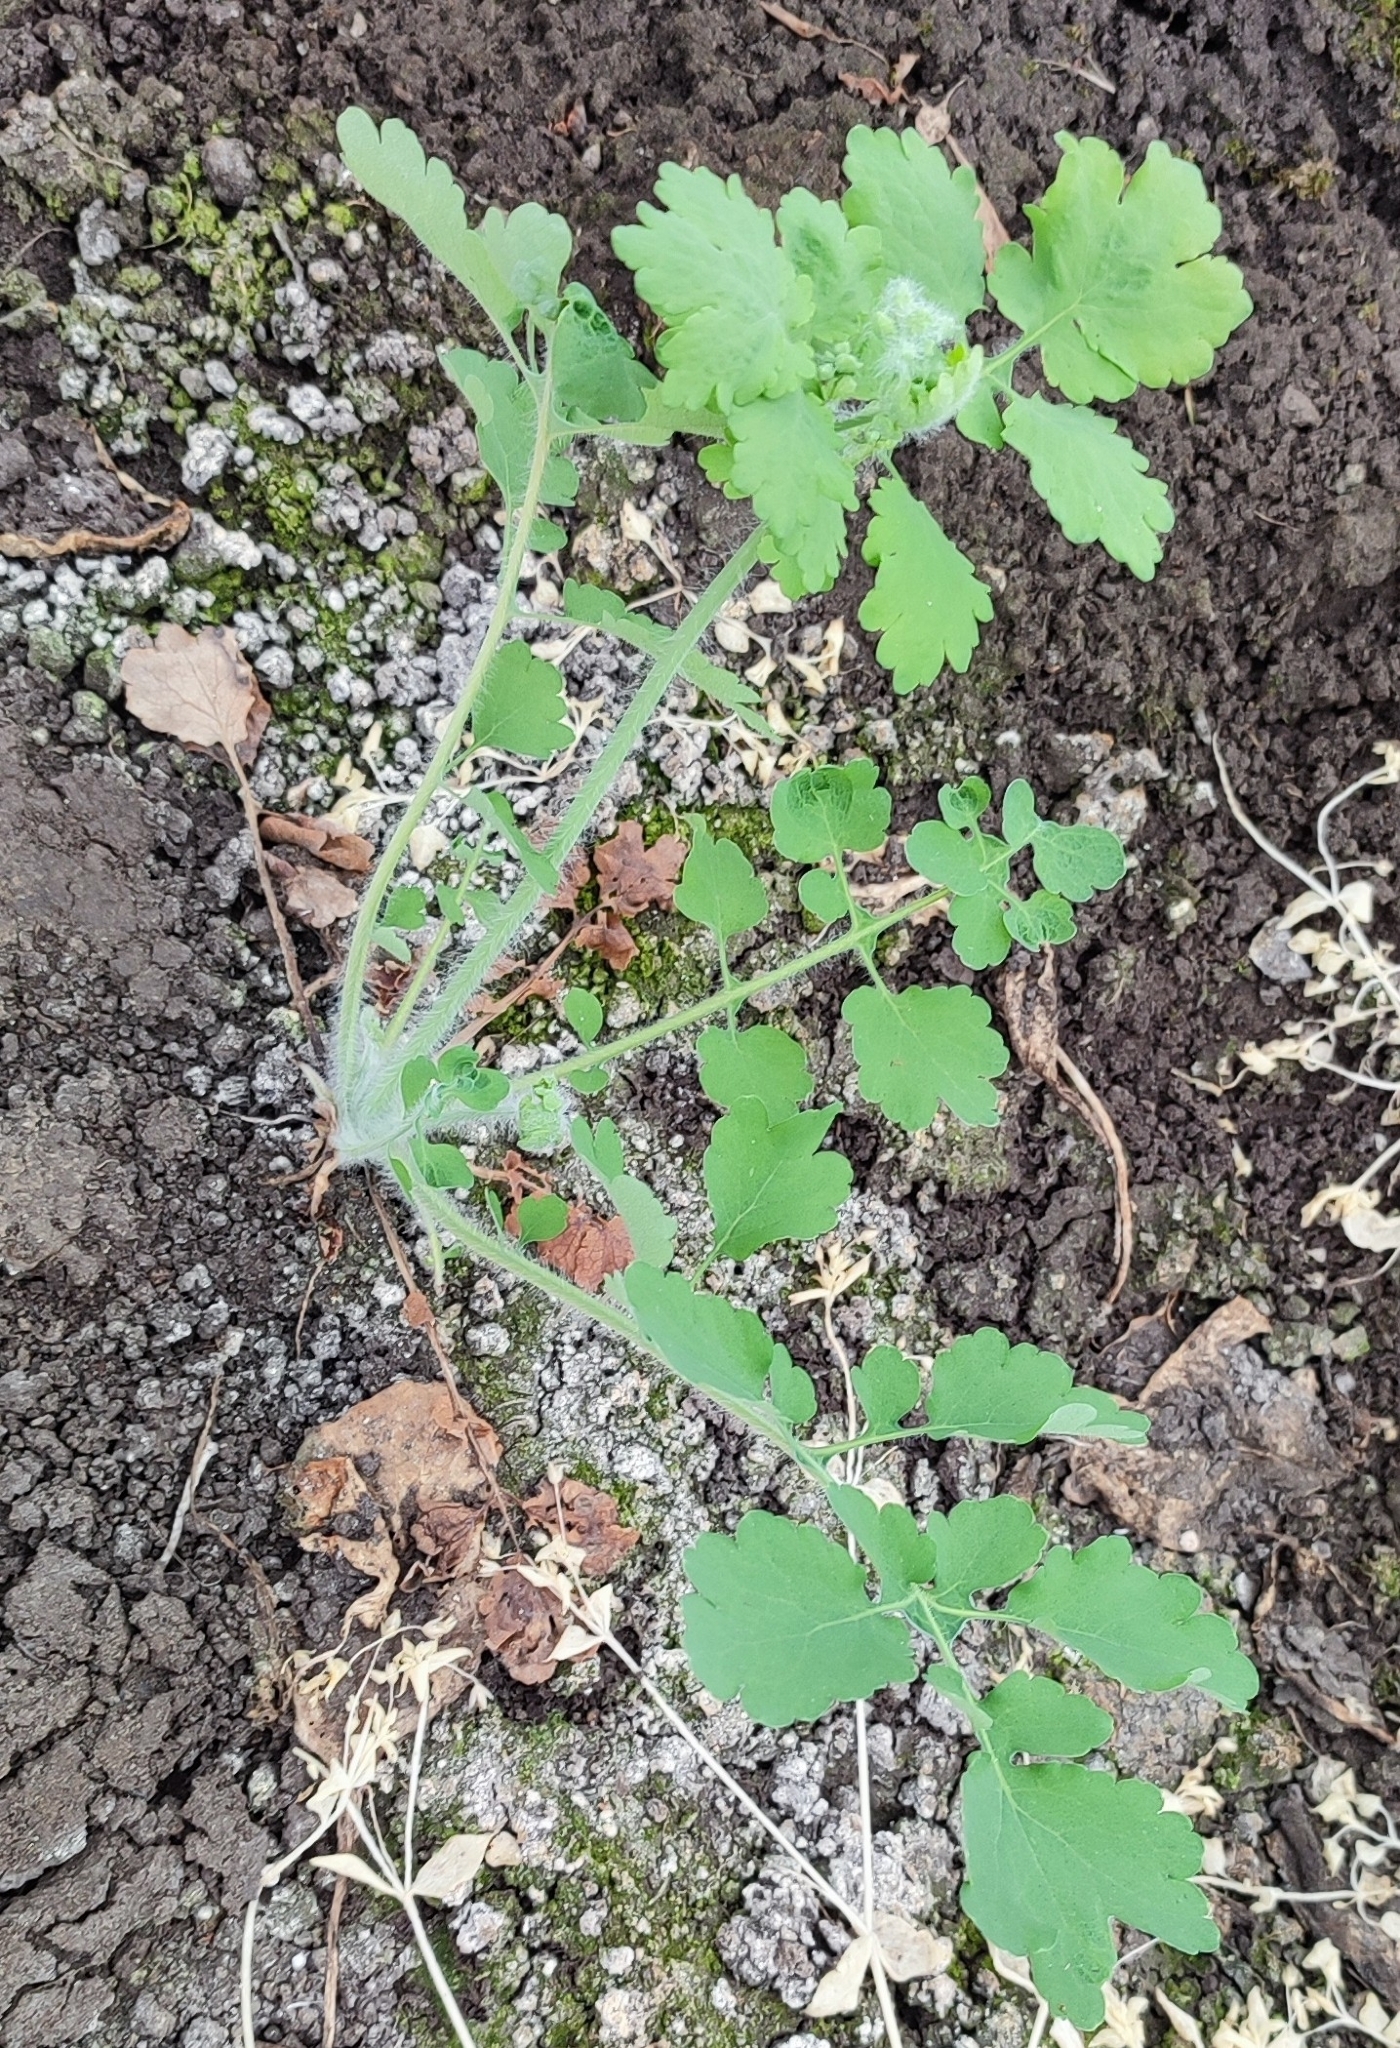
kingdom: Plantae
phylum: Tracheophyta
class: Magnoliopsida
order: Ranunculales
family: Papaveraceae
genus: Chelidonium
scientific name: Chelidonium majus
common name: Greater celandine
